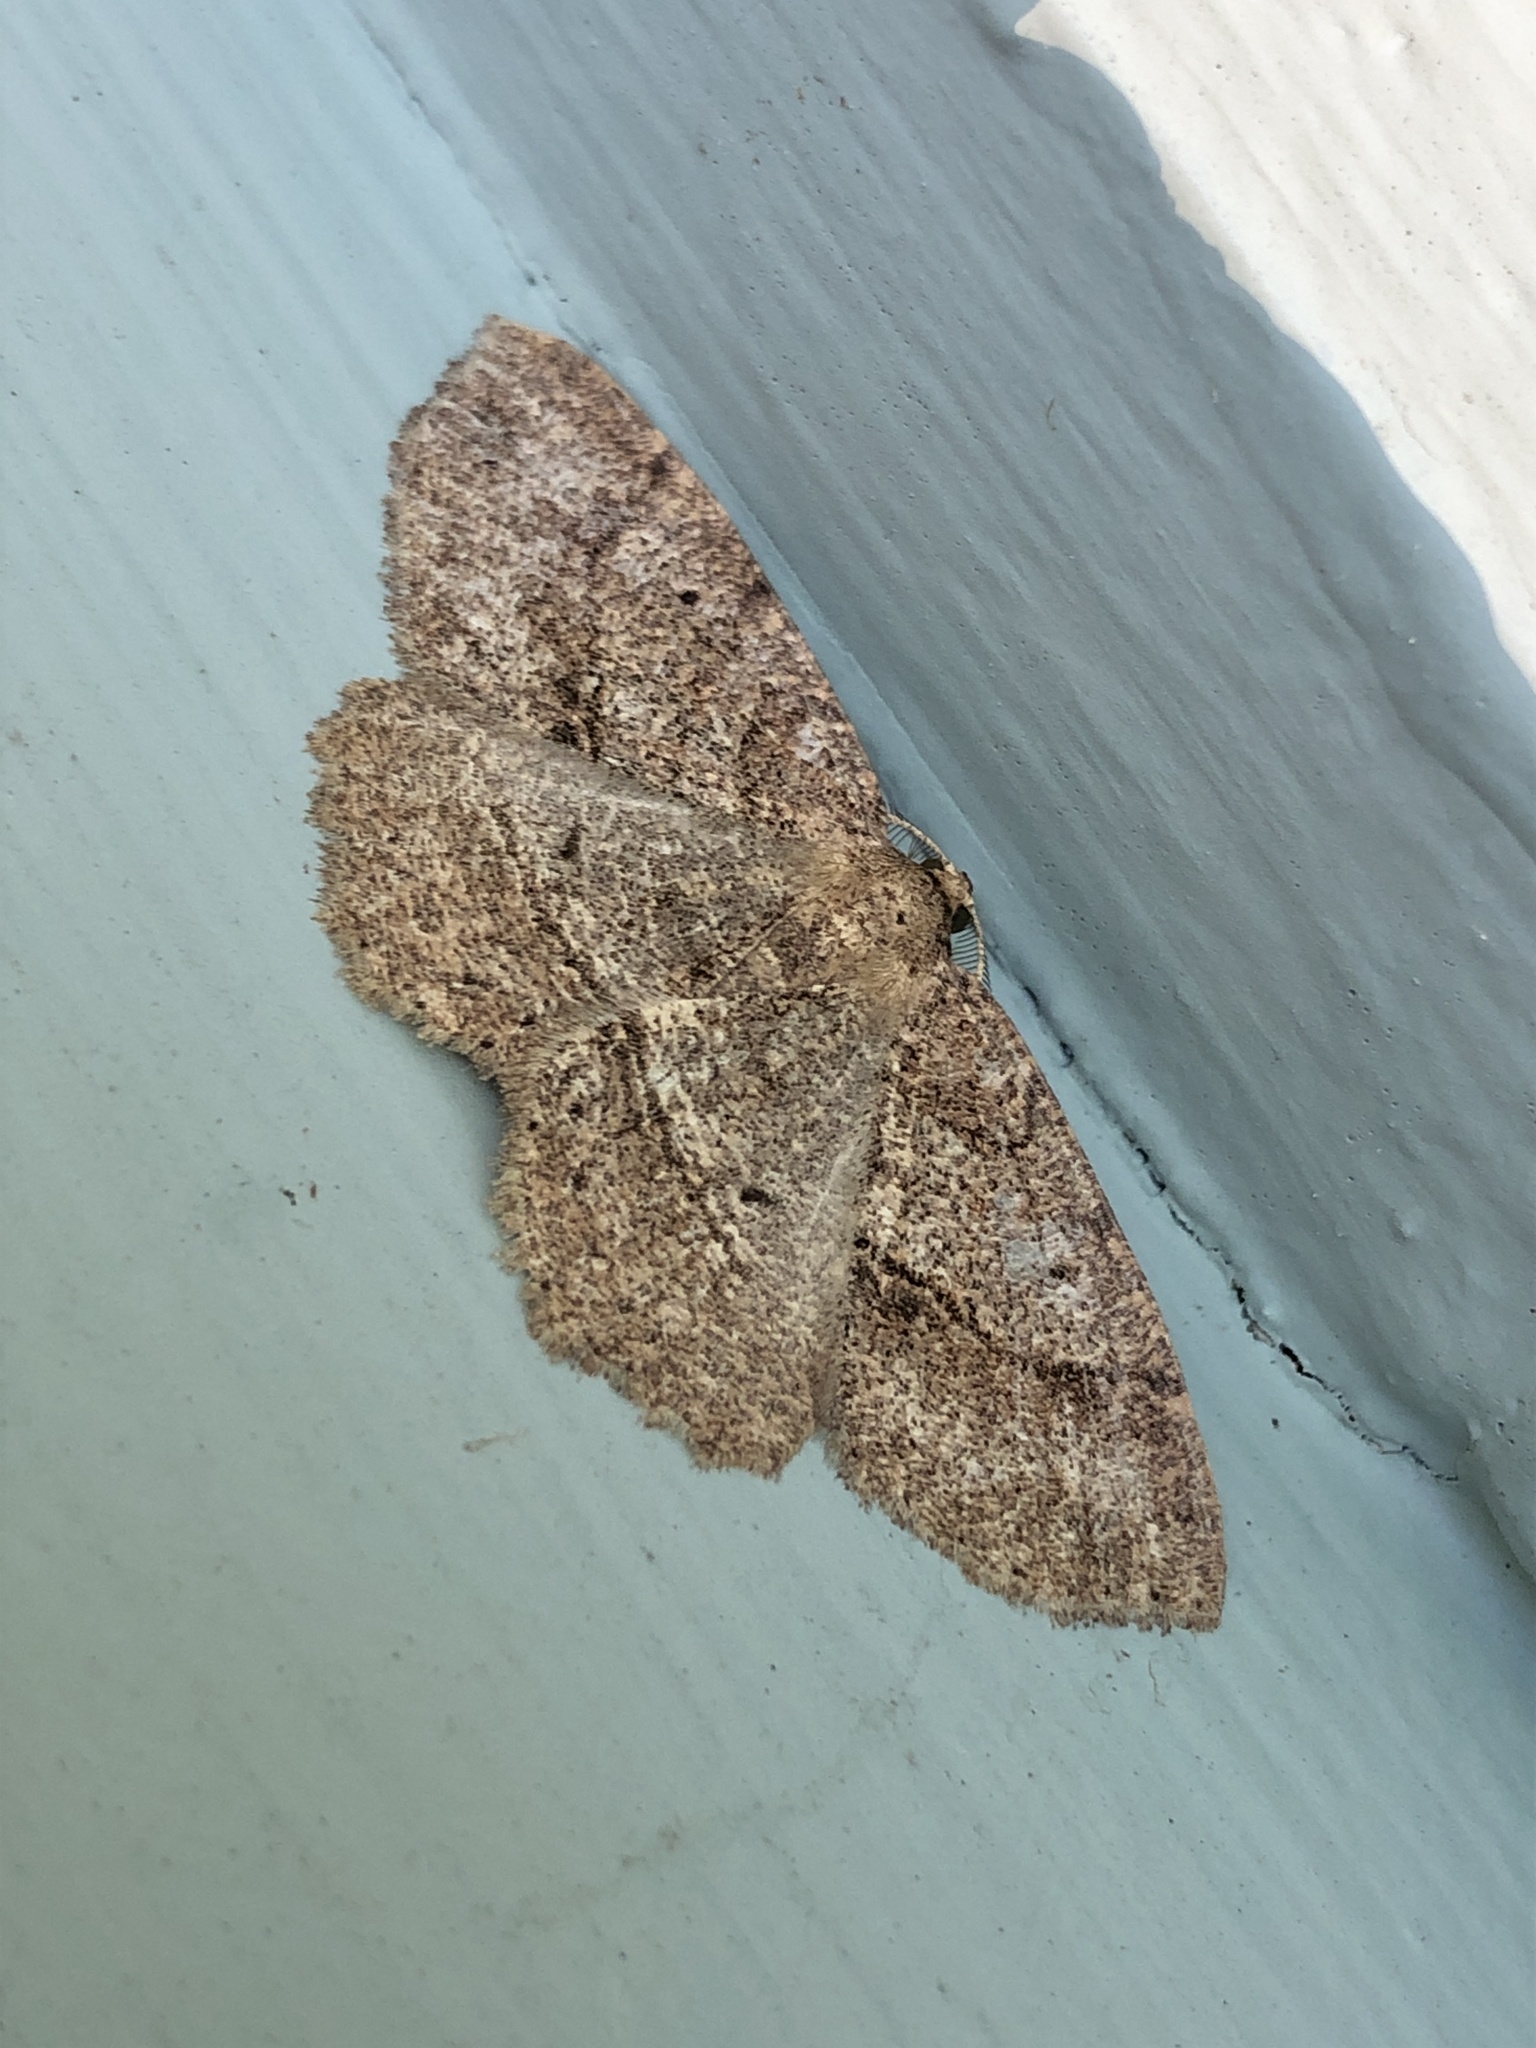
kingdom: Animalia
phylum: Arthropoda
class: Insecta
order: Lepidoptera
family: Geometridae
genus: Melanolophia
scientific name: Melanolophia signataria
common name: Signate melanolophia
